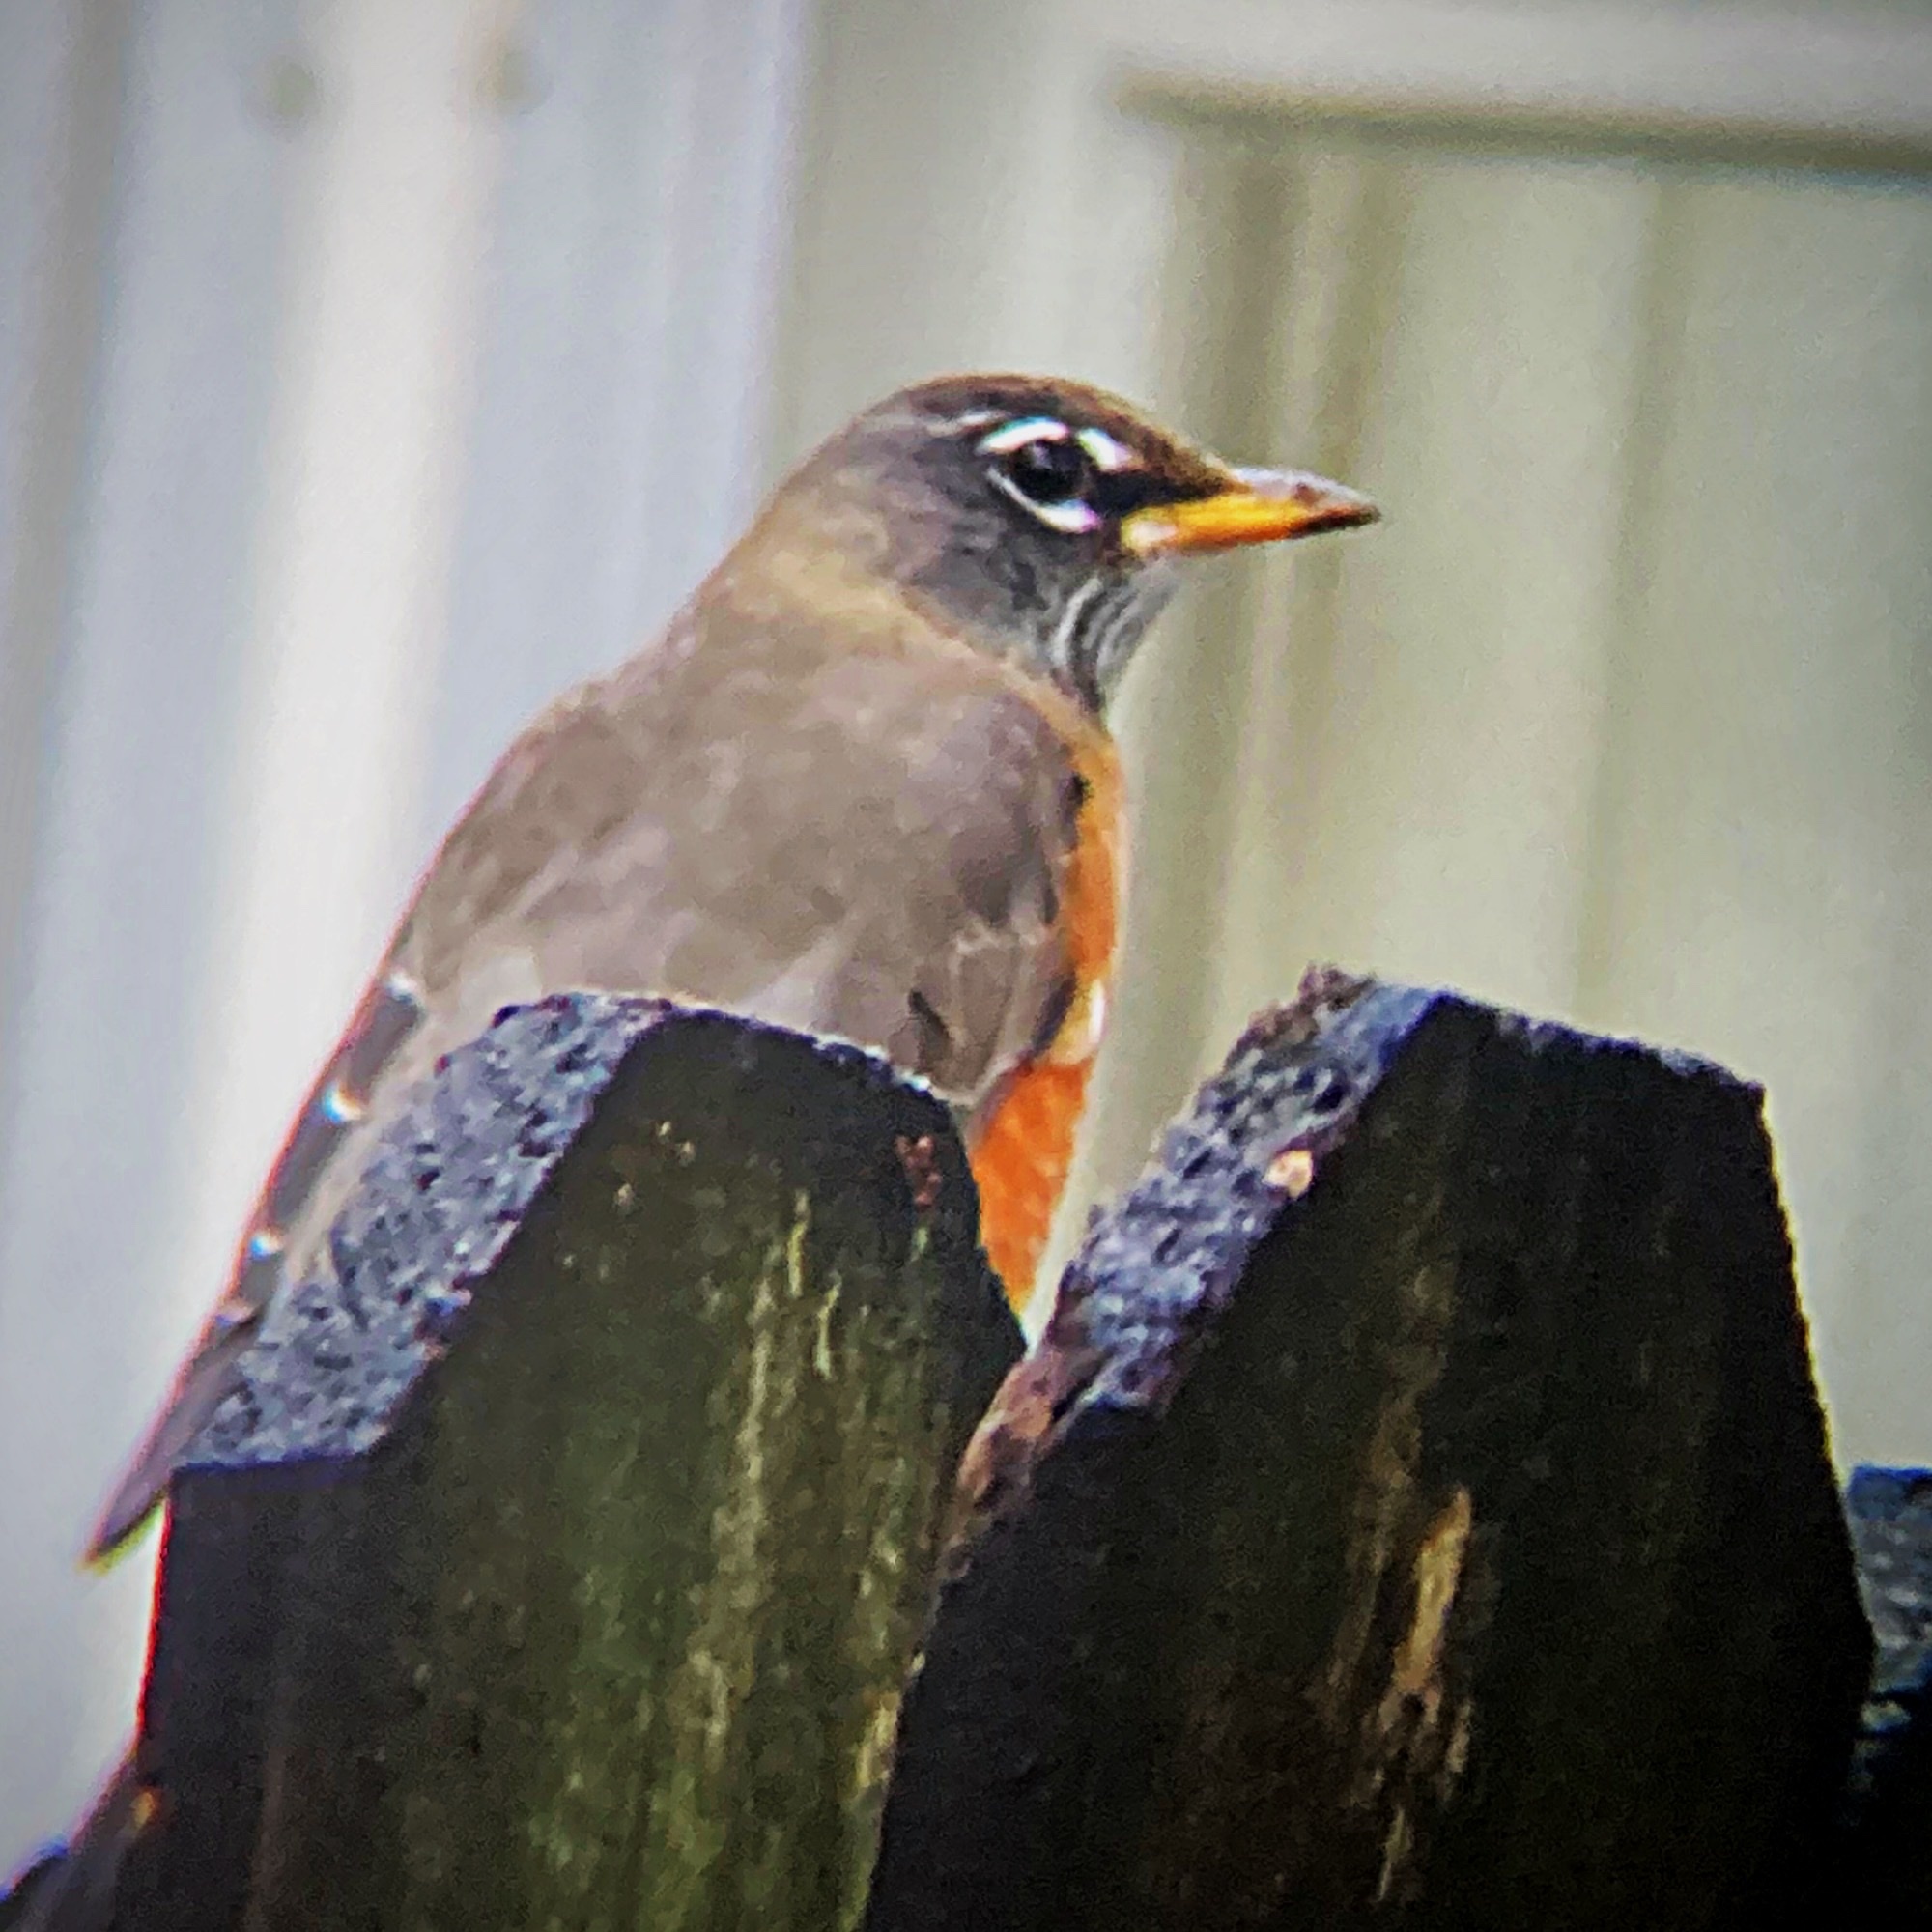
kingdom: Animalia
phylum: Chordata
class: Aves
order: Passeriformes
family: Turdidae
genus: Turdus
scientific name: Turdus migratorius
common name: American robin
